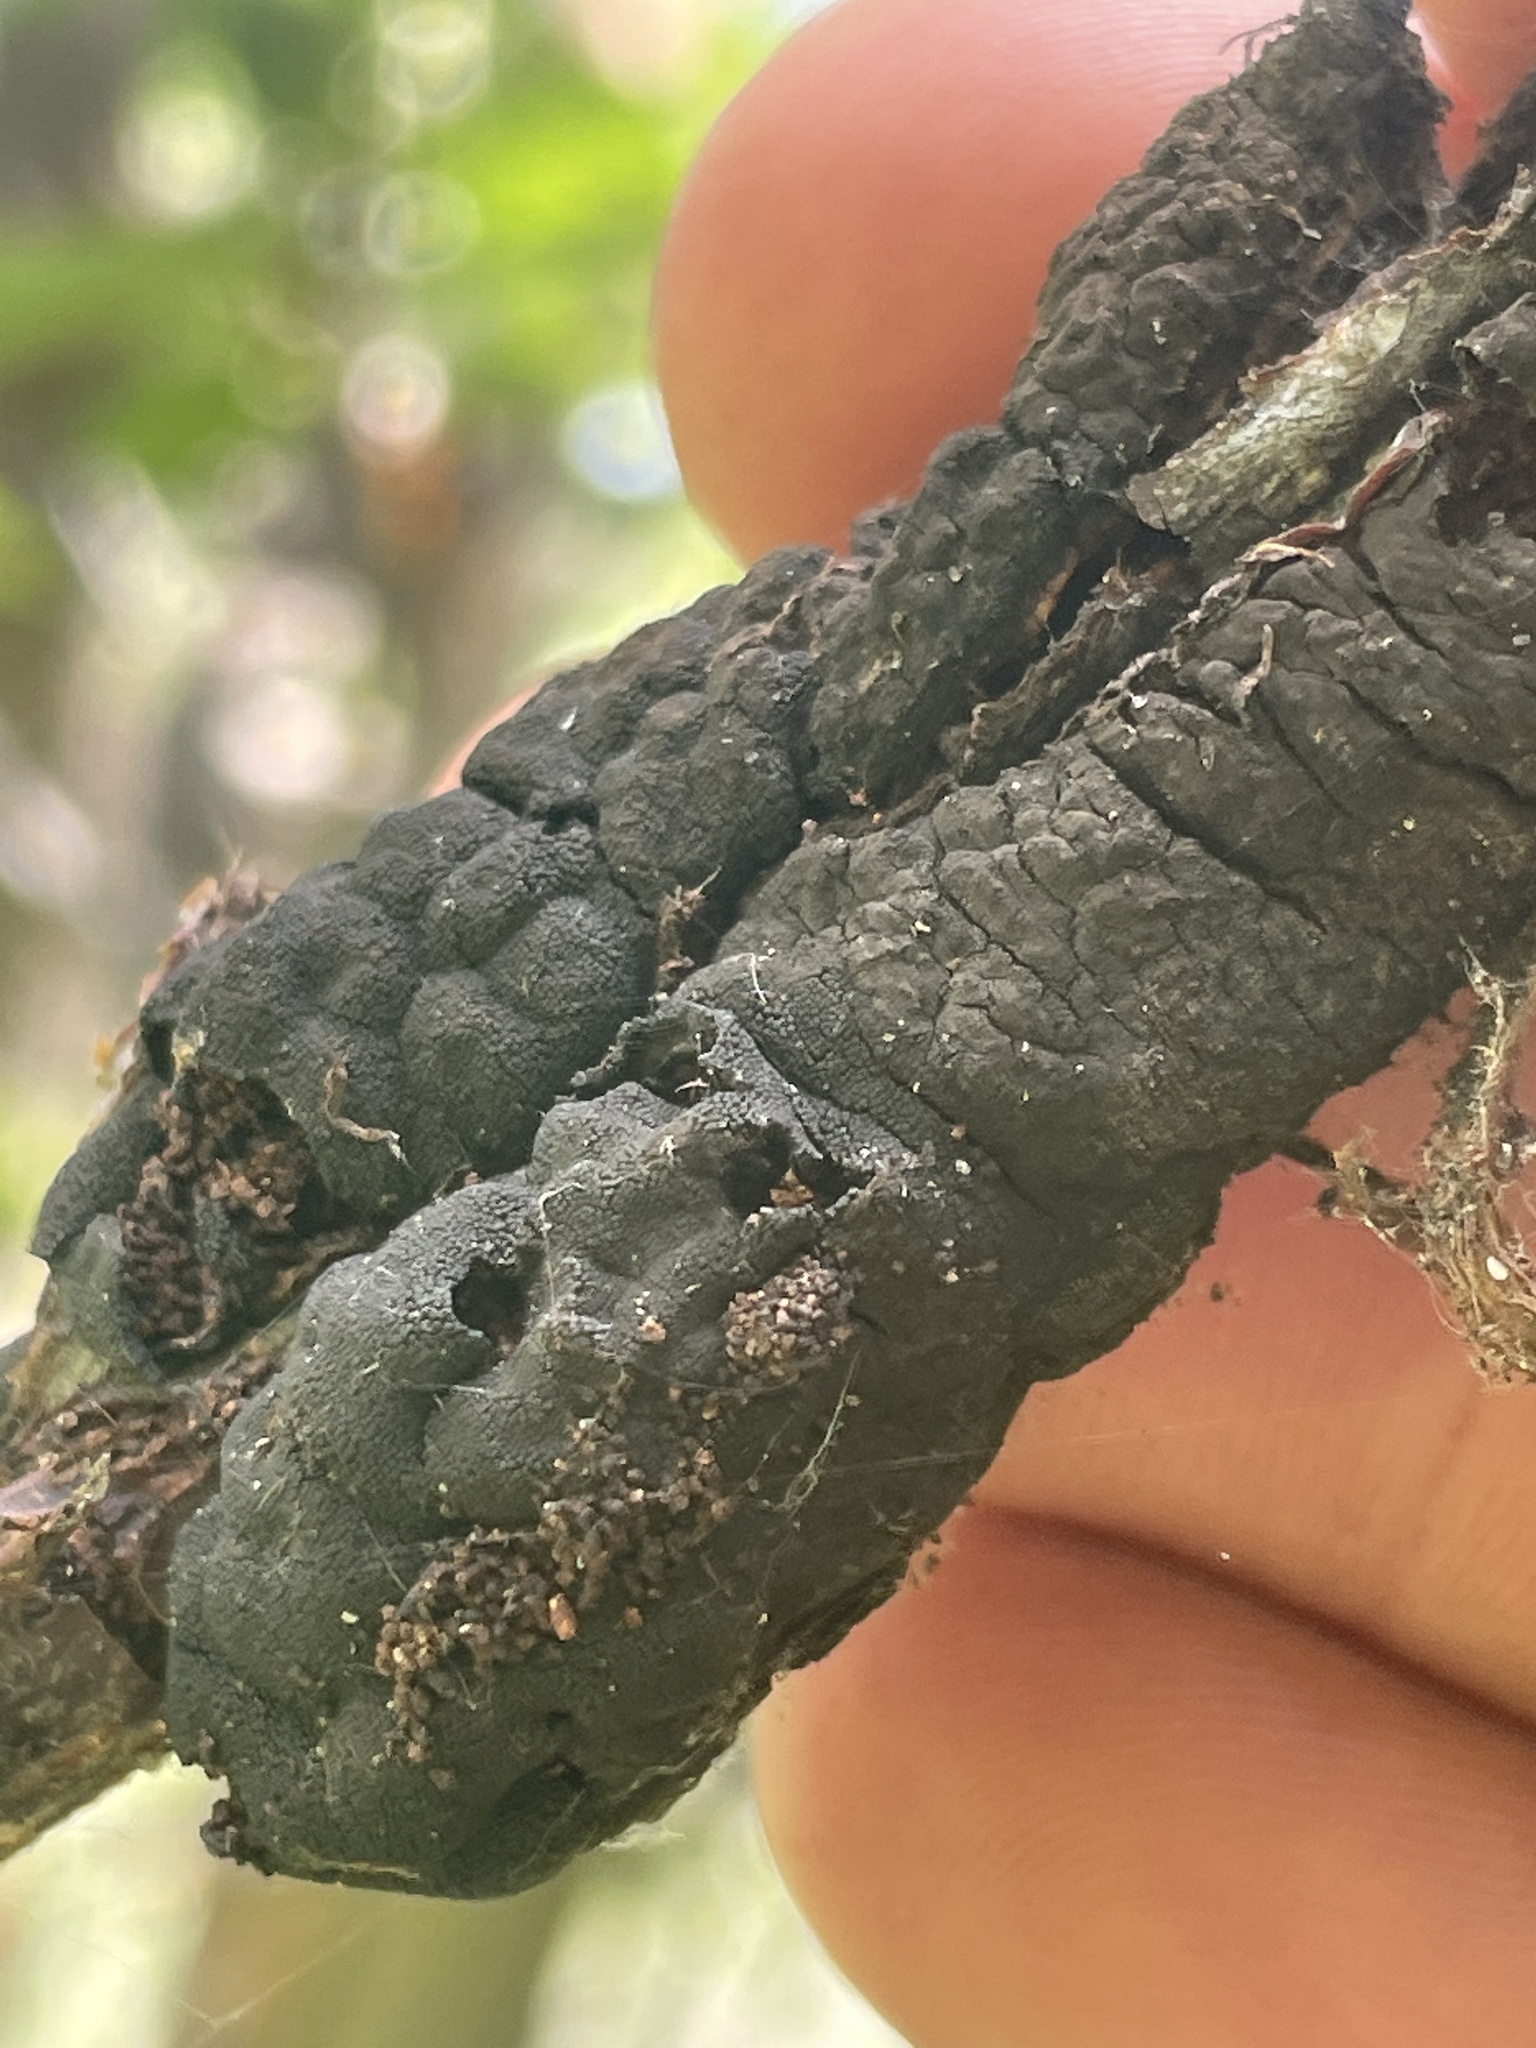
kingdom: Fungi
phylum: Ascomycota
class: Dothideomycetes
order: Venturiales
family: Venturiaceae
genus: Apiosporina
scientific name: Apiosporina morbosa
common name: Black knot
